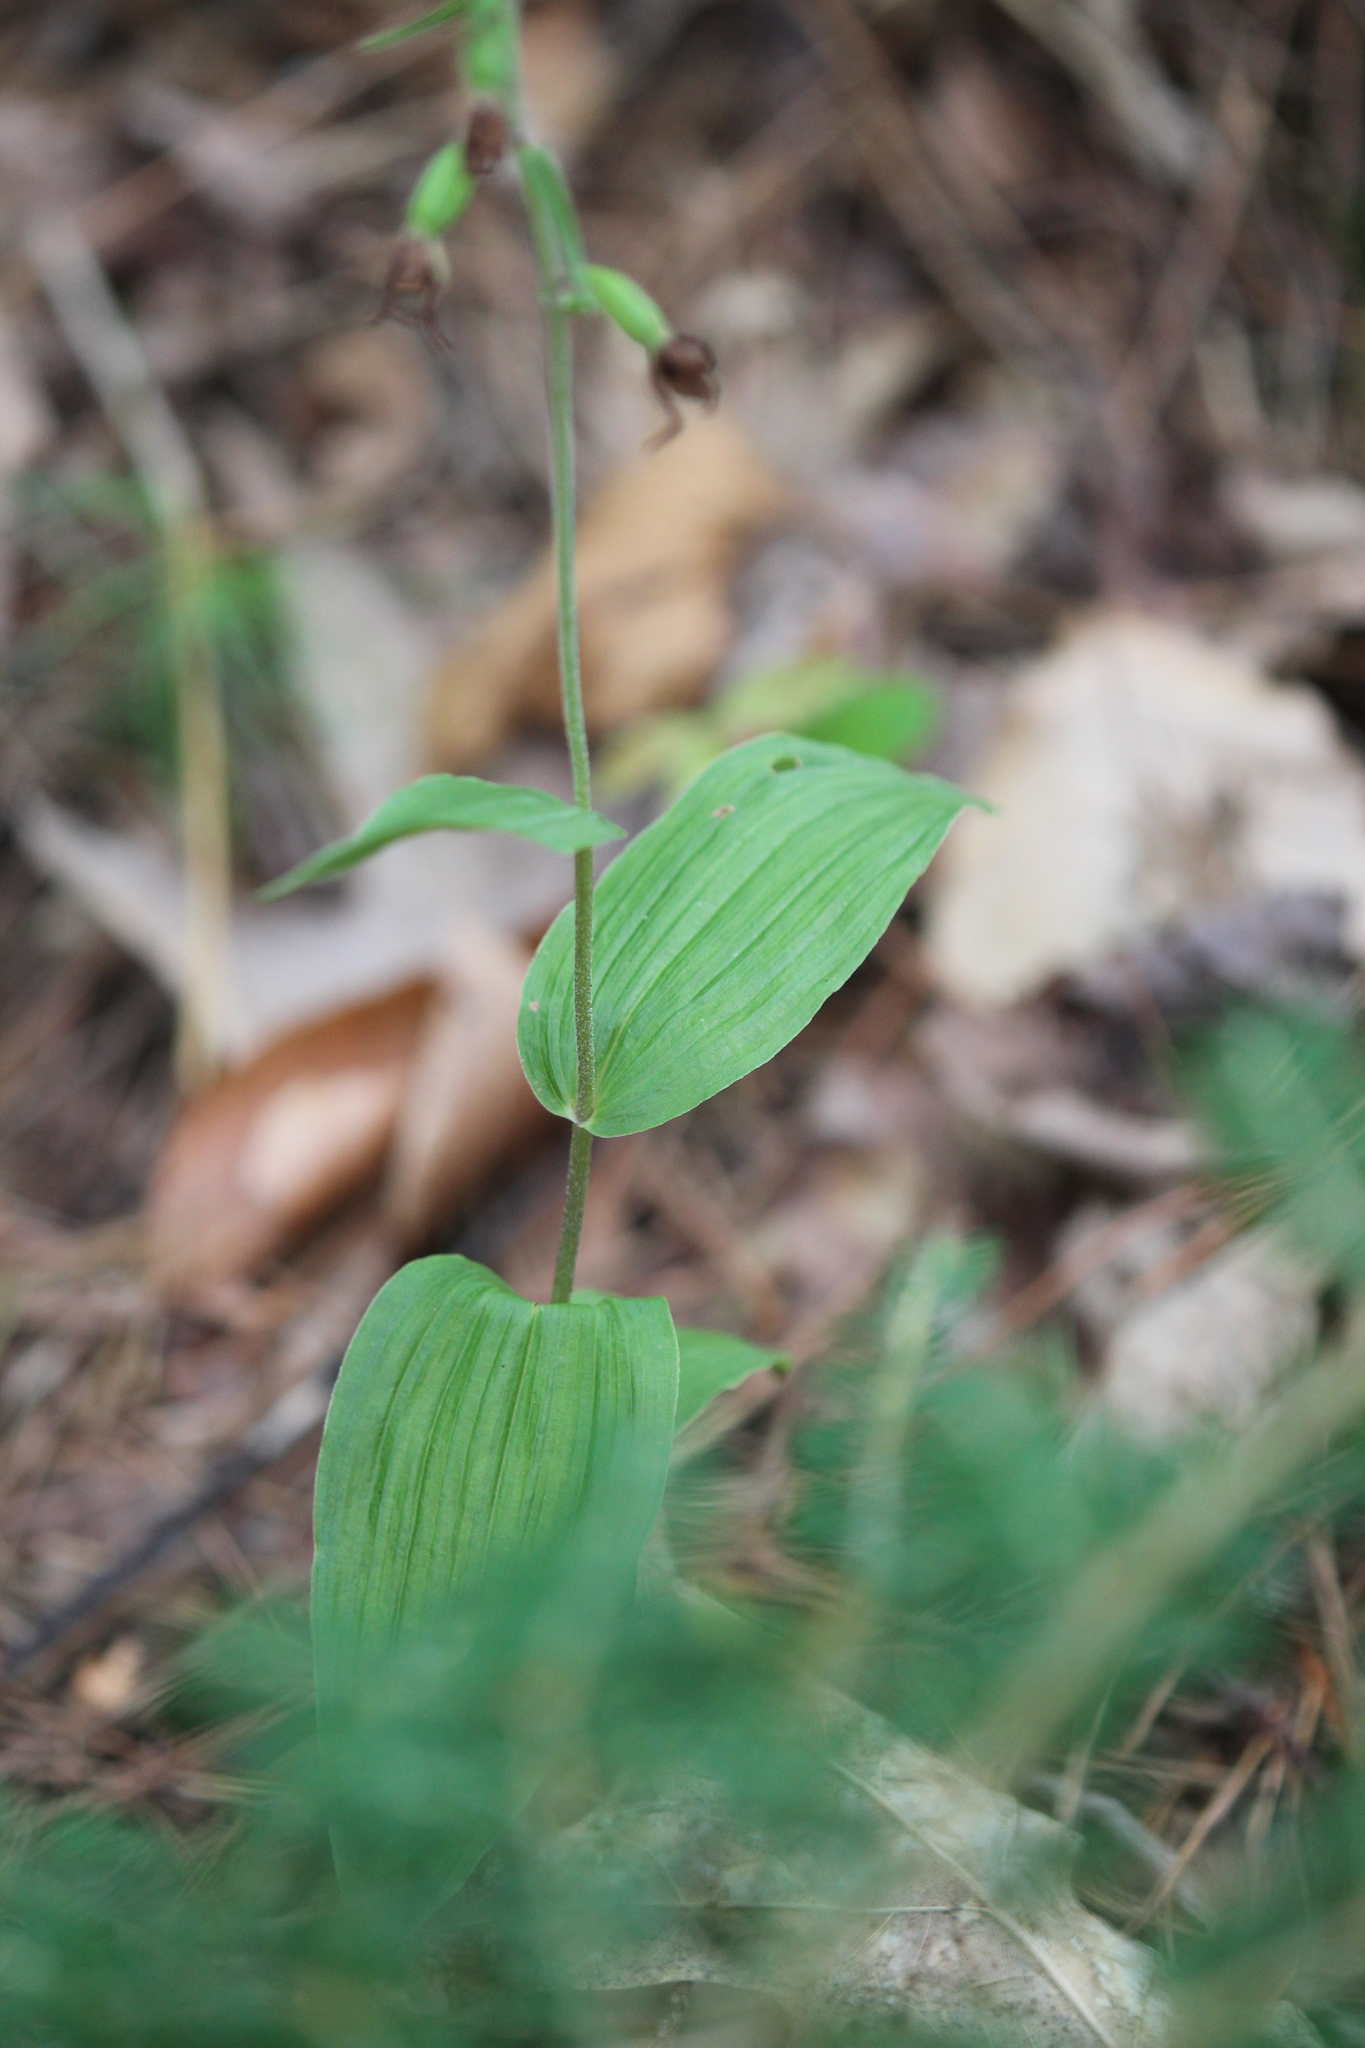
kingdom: Plantae
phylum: Tracheophyta
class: Liliopsida
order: Asparagales
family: Orchidaceae
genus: Epipactis
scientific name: Epipactis helleborine
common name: Broad-leaved helleborine
